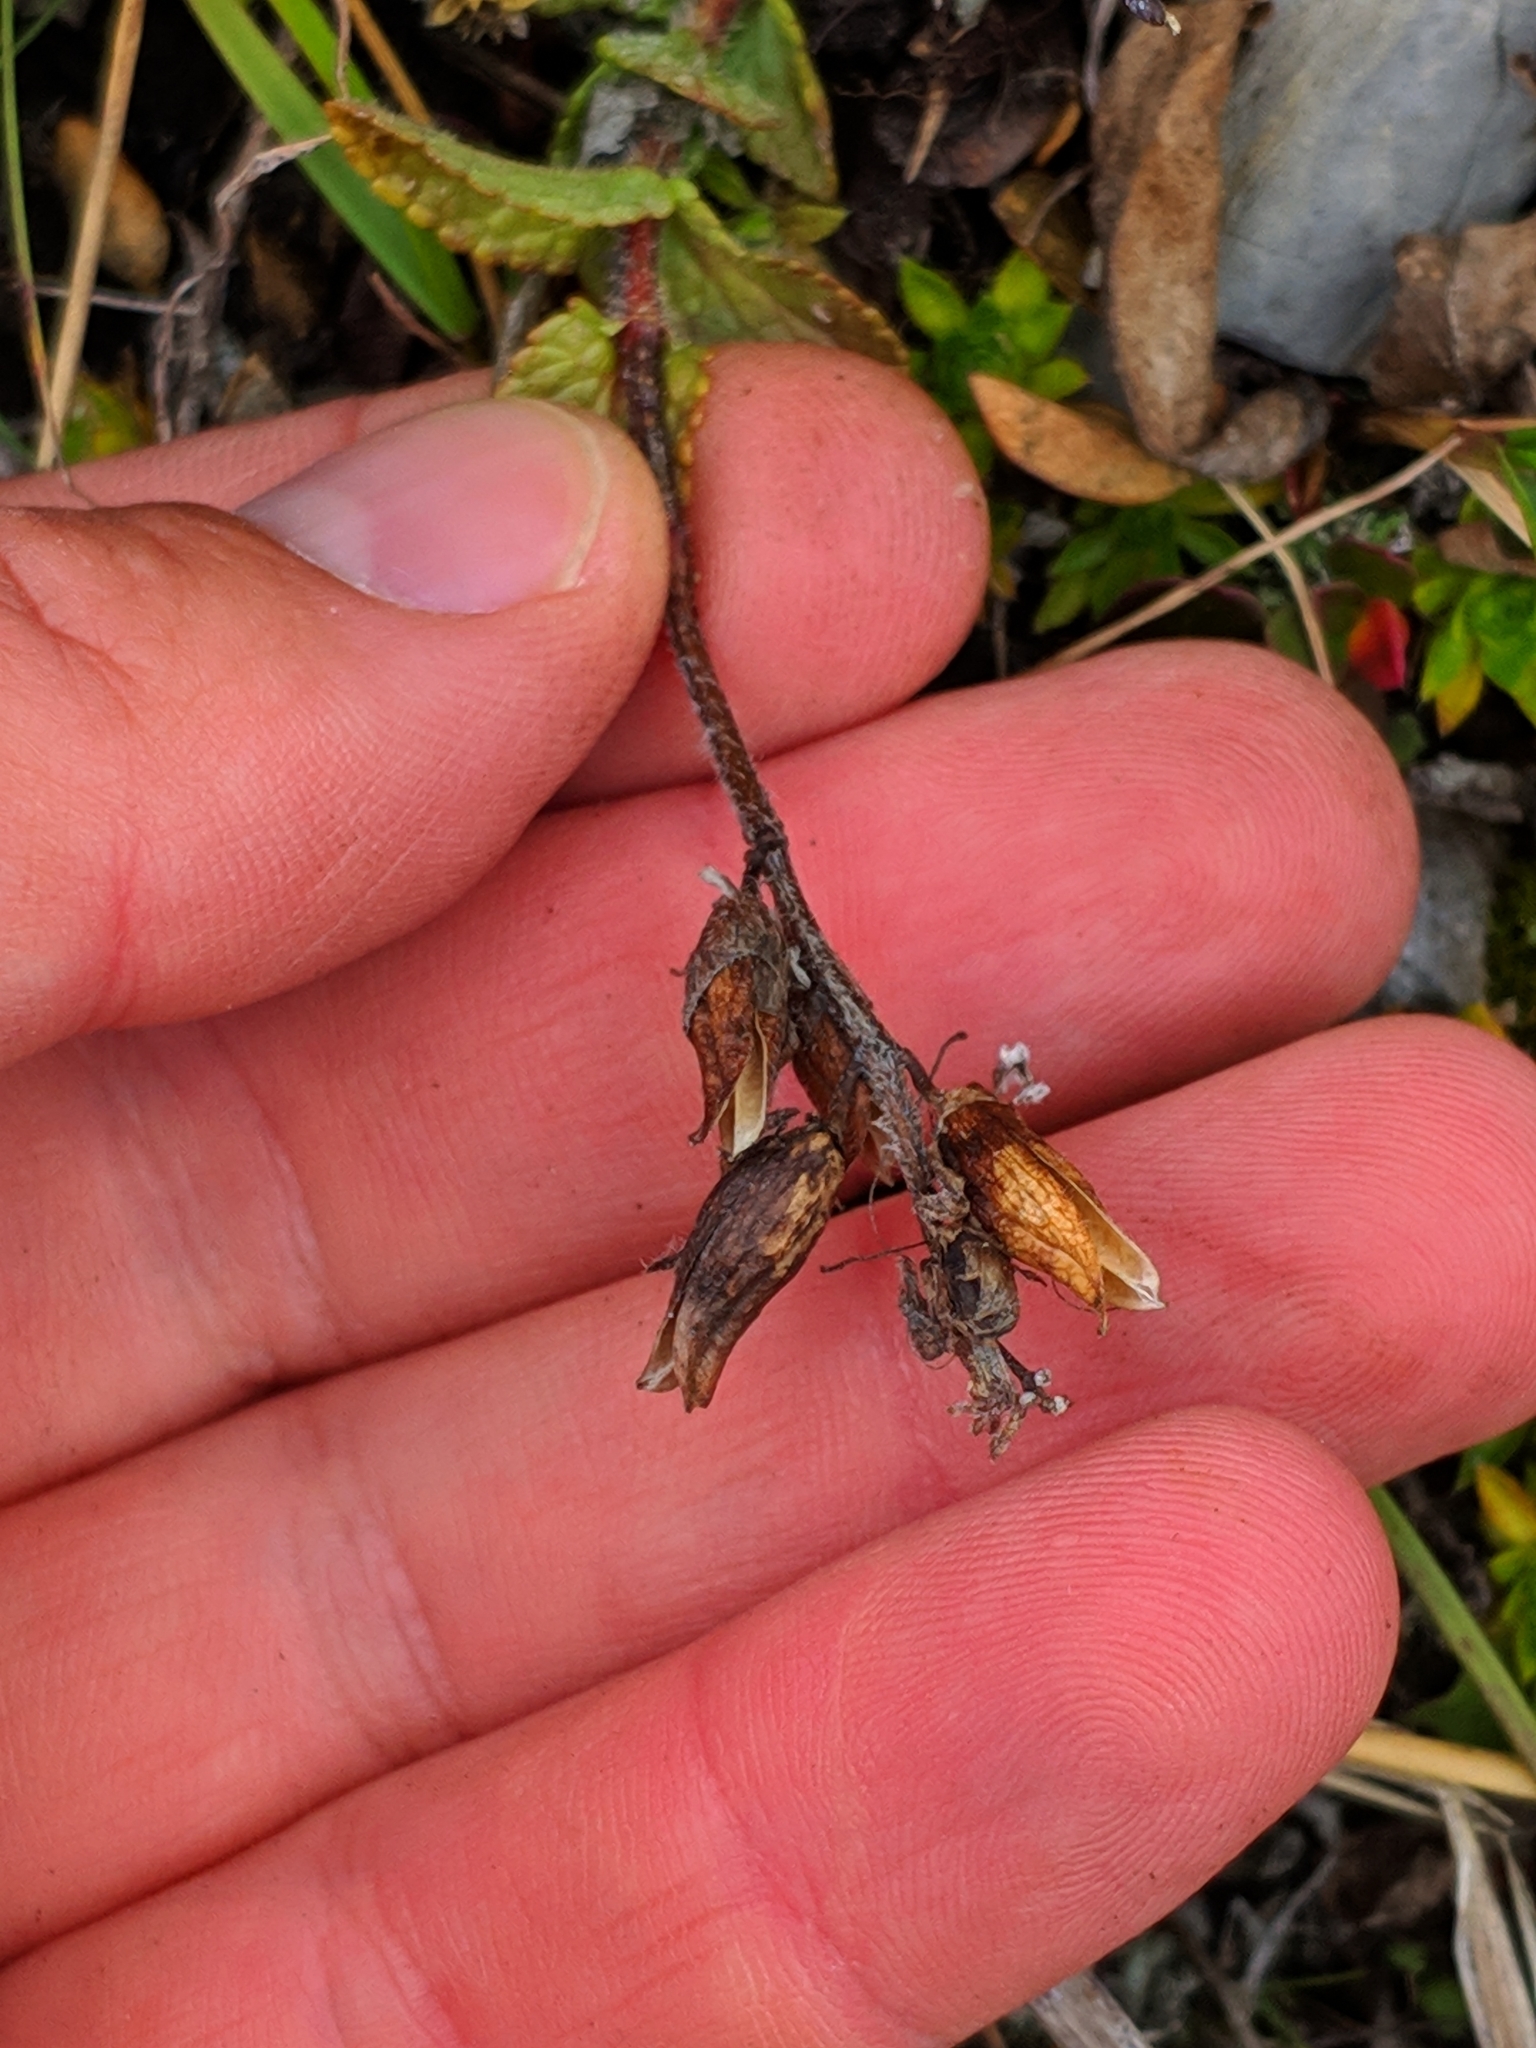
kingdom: Plantae
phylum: Tracheophyta
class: Magnoliopsida
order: Lamiales
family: Orobanchaceae
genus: Bartsia
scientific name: Bartsia alpina
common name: Alpine bartsia
